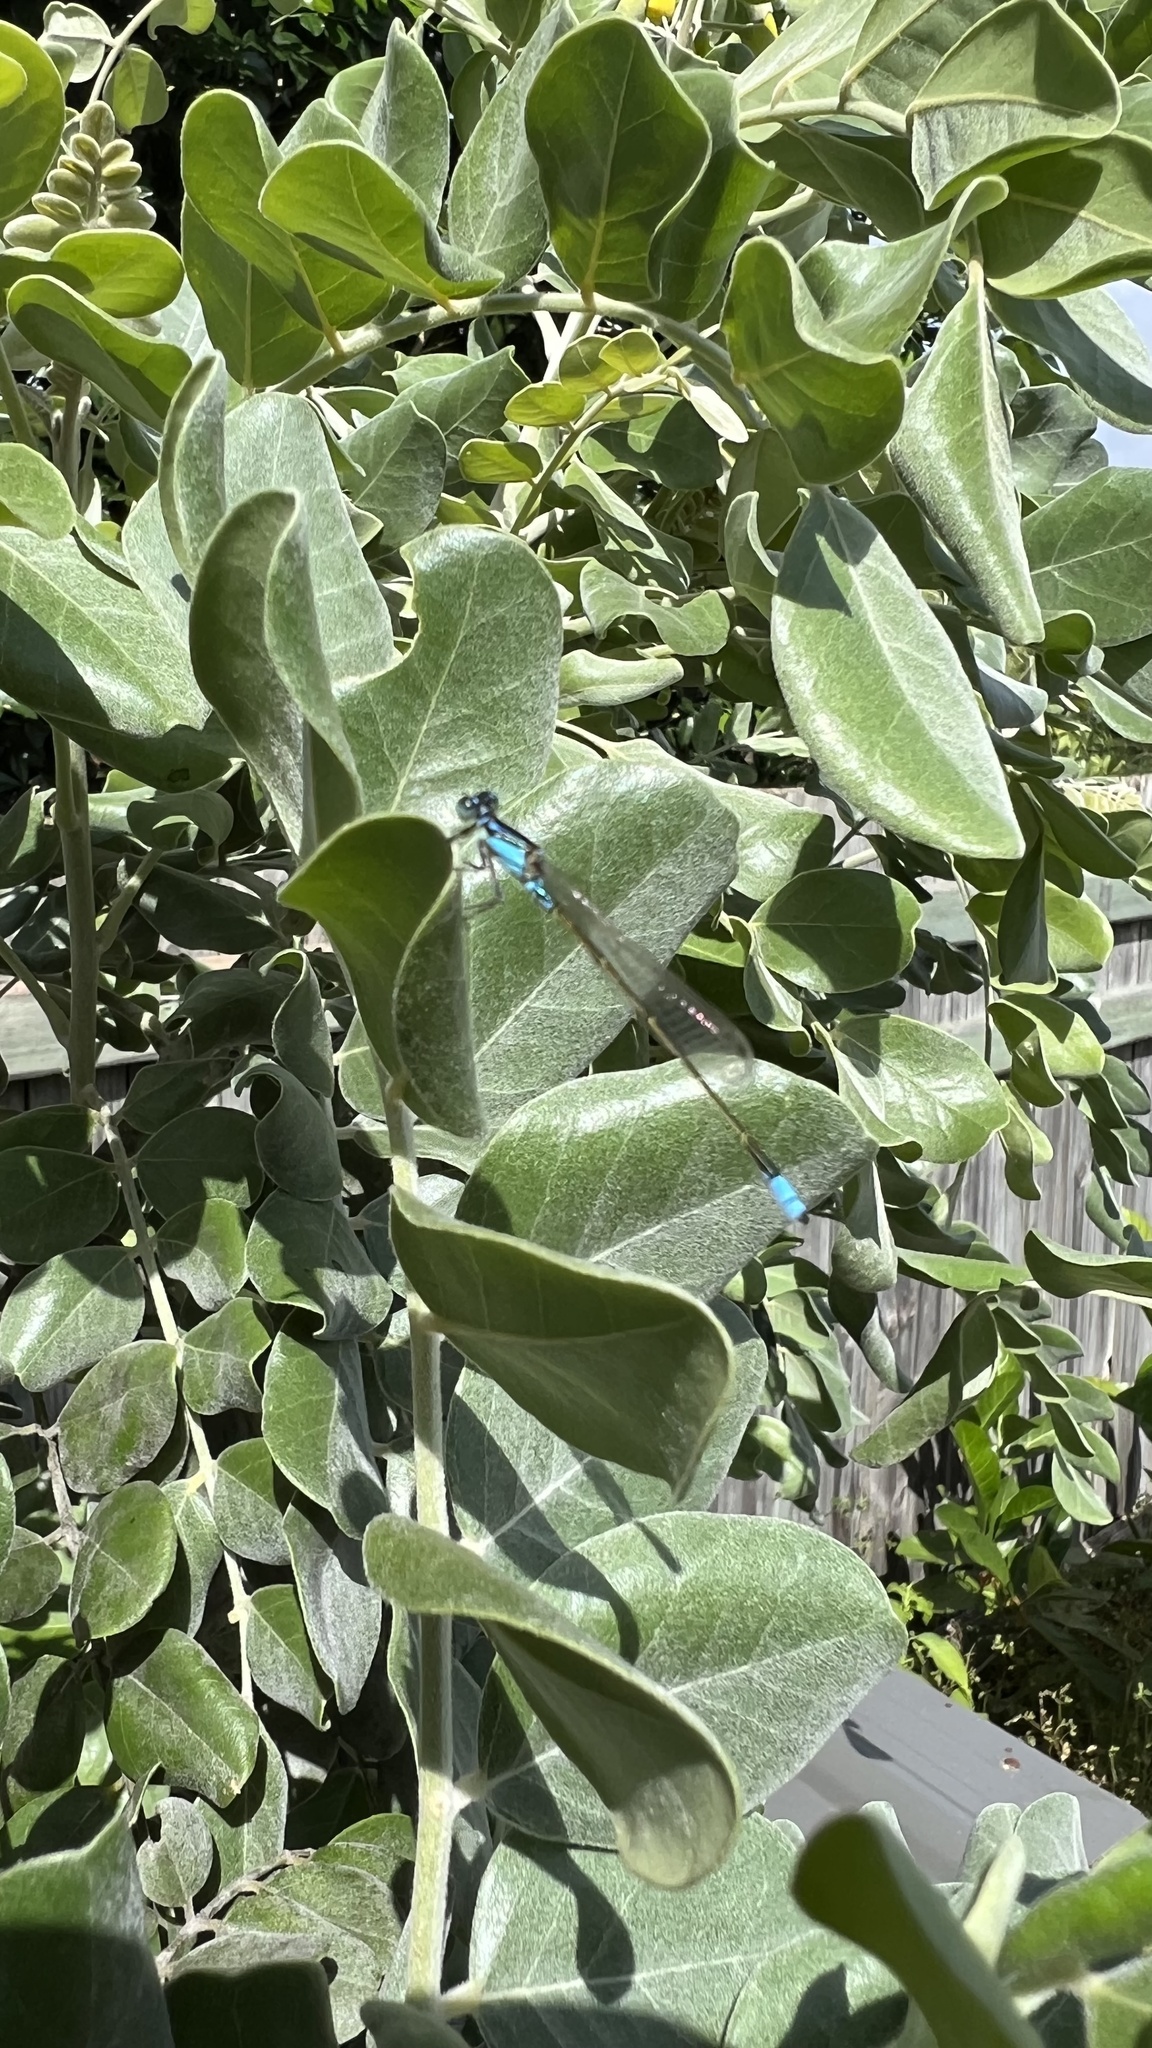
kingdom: Animalia
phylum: Arthropoda
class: Insecta
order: Odonata
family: Coenagrionidae
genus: Ischnura
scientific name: Ischnura heterosticta
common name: Common bluetail
